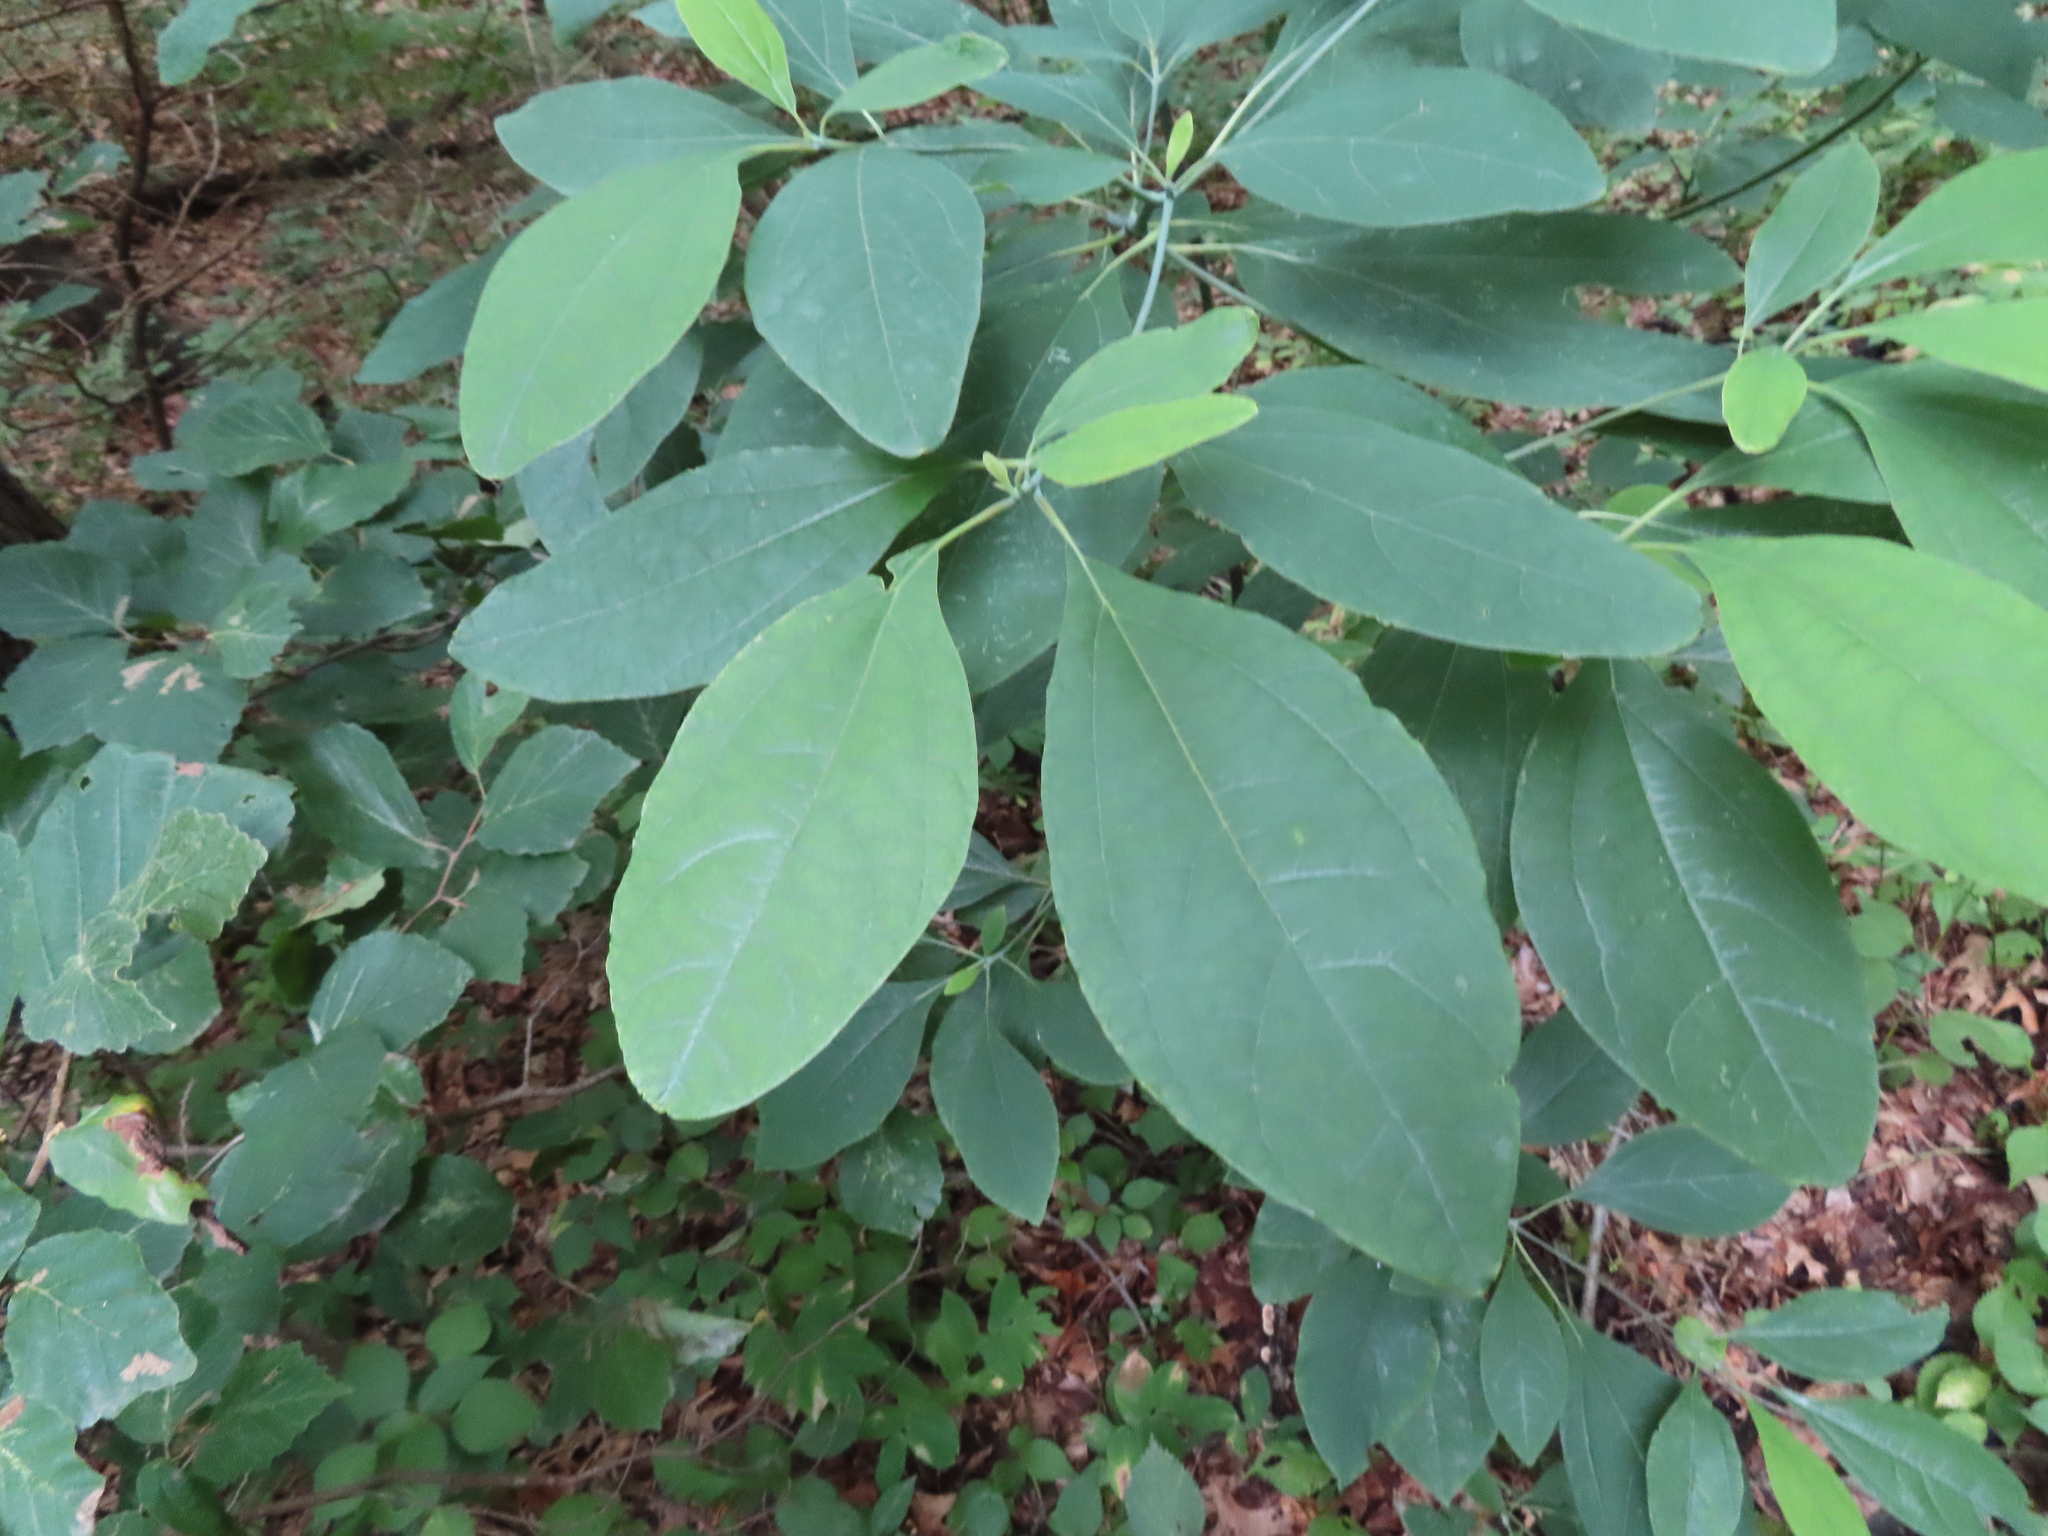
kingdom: Plantae
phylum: Tracheophyta
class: Magnoliopsida
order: Laurales
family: Lauraceae
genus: Sassafras
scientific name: Sassafras albidum
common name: Sassafras
